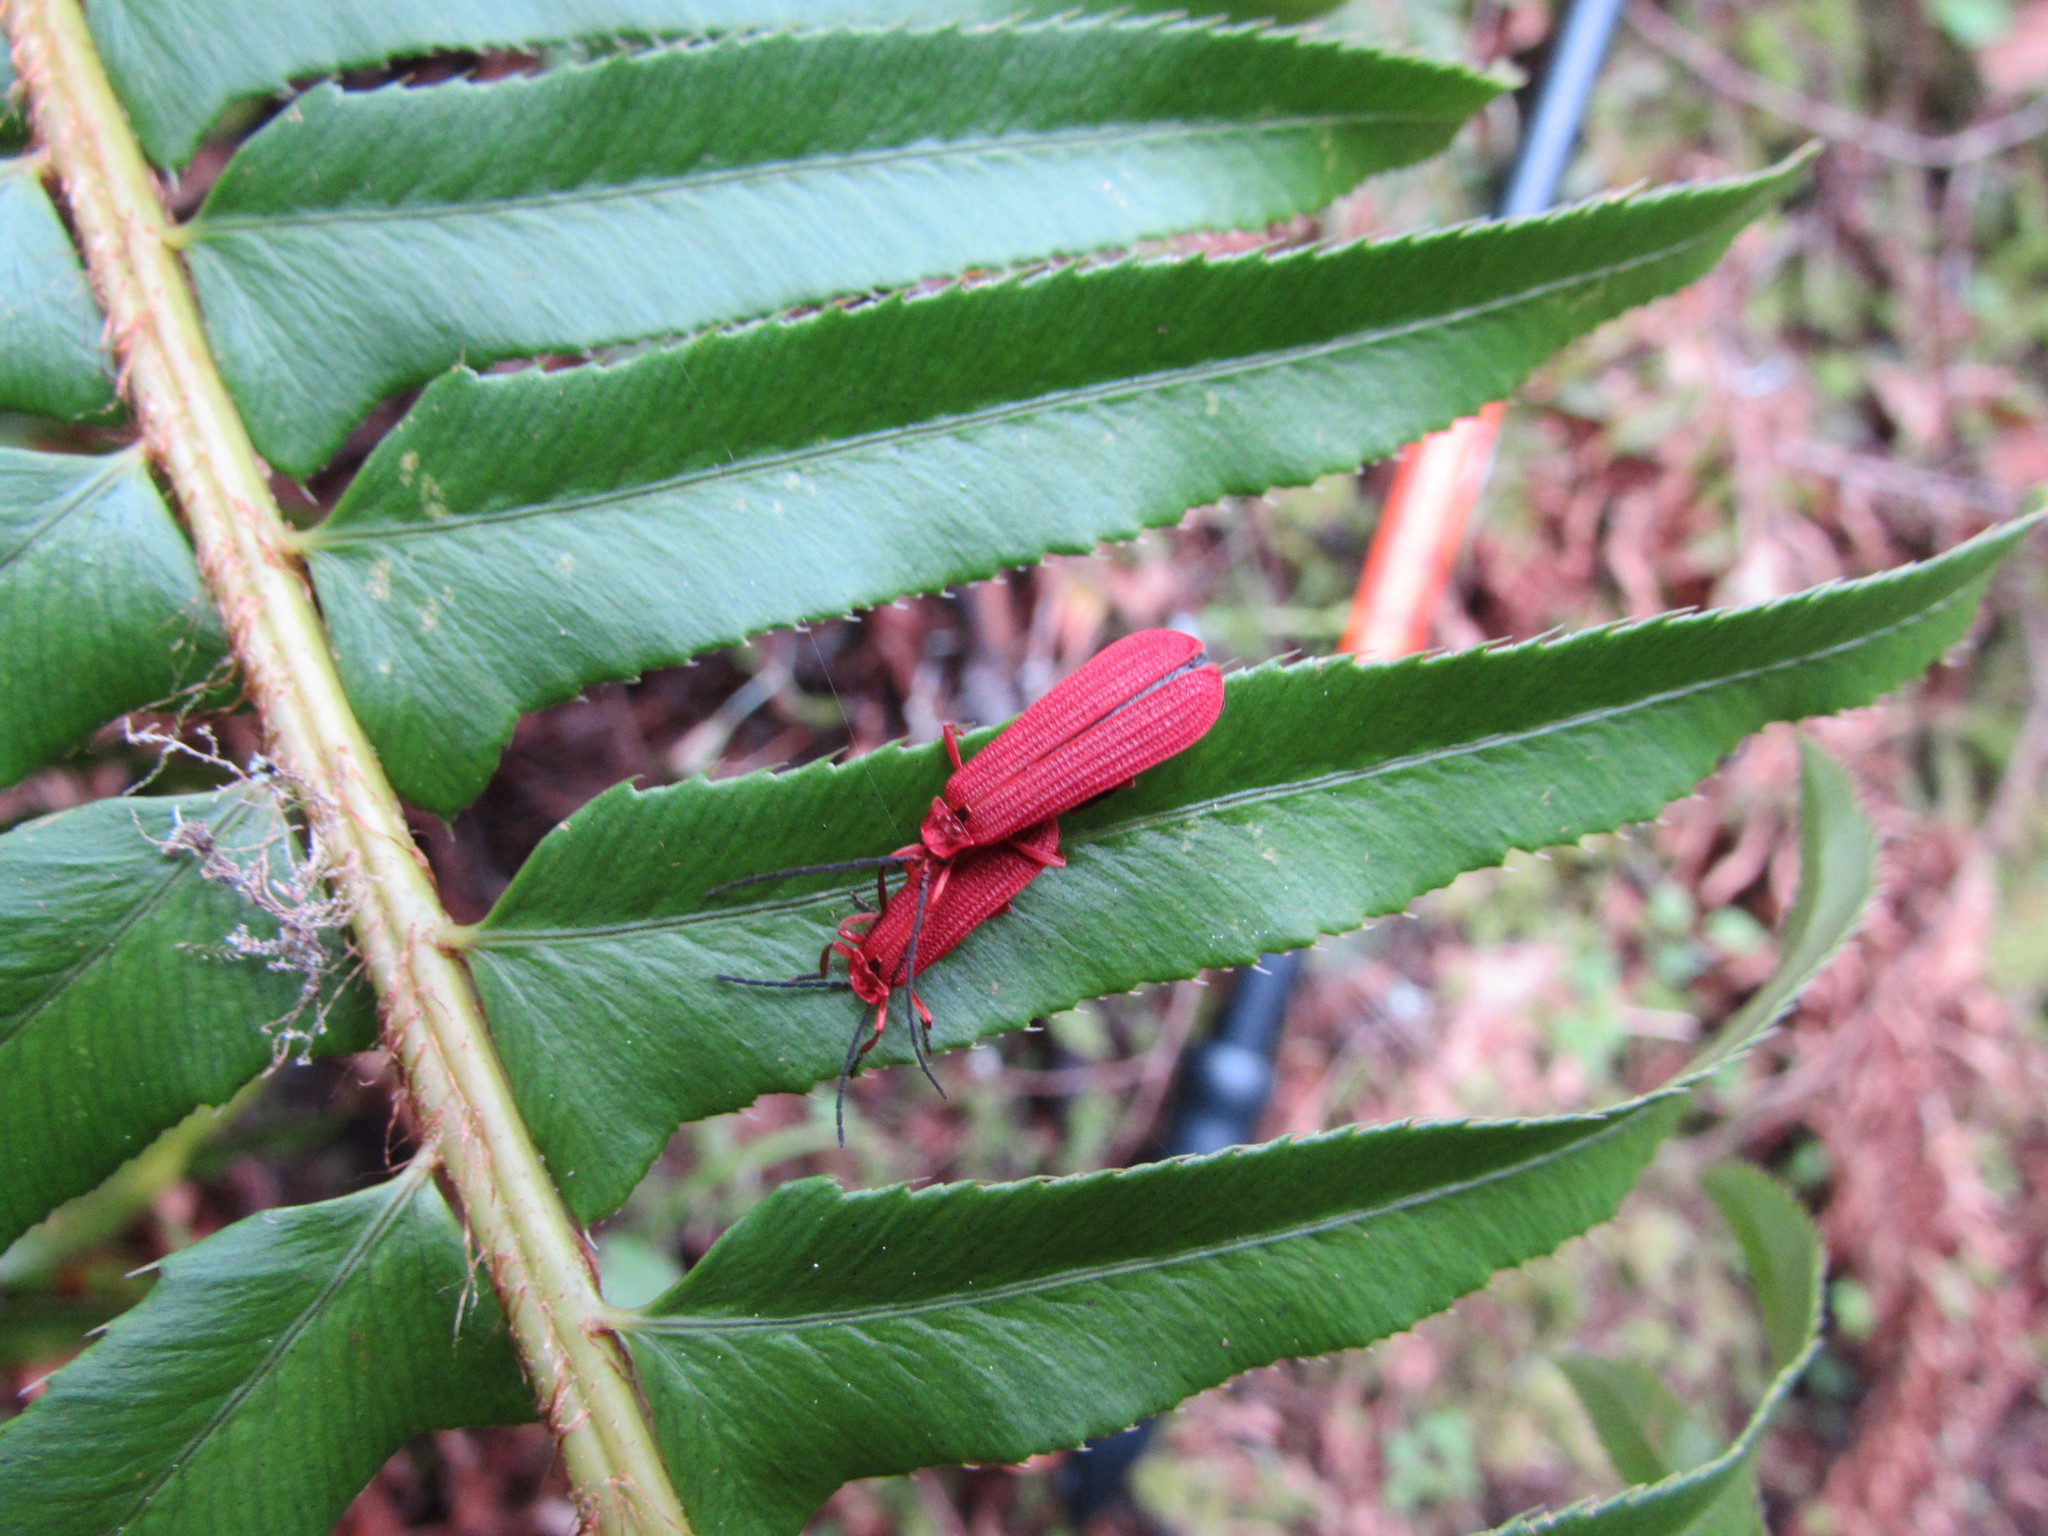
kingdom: Animalia
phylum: Arthropoda
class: Insecta
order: Coleoptera
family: Lycidae
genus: Punicealis
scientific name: Punicealis hamata
